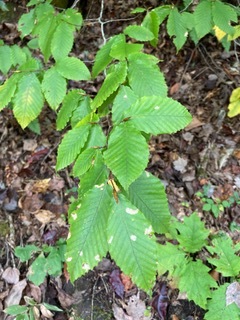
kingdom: Plantae
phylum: Tracheophyta
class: Magnoliopsida
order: Fagales
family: Fagaceae
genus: Fagus
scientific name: Fagus grandifolia
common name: American beech
